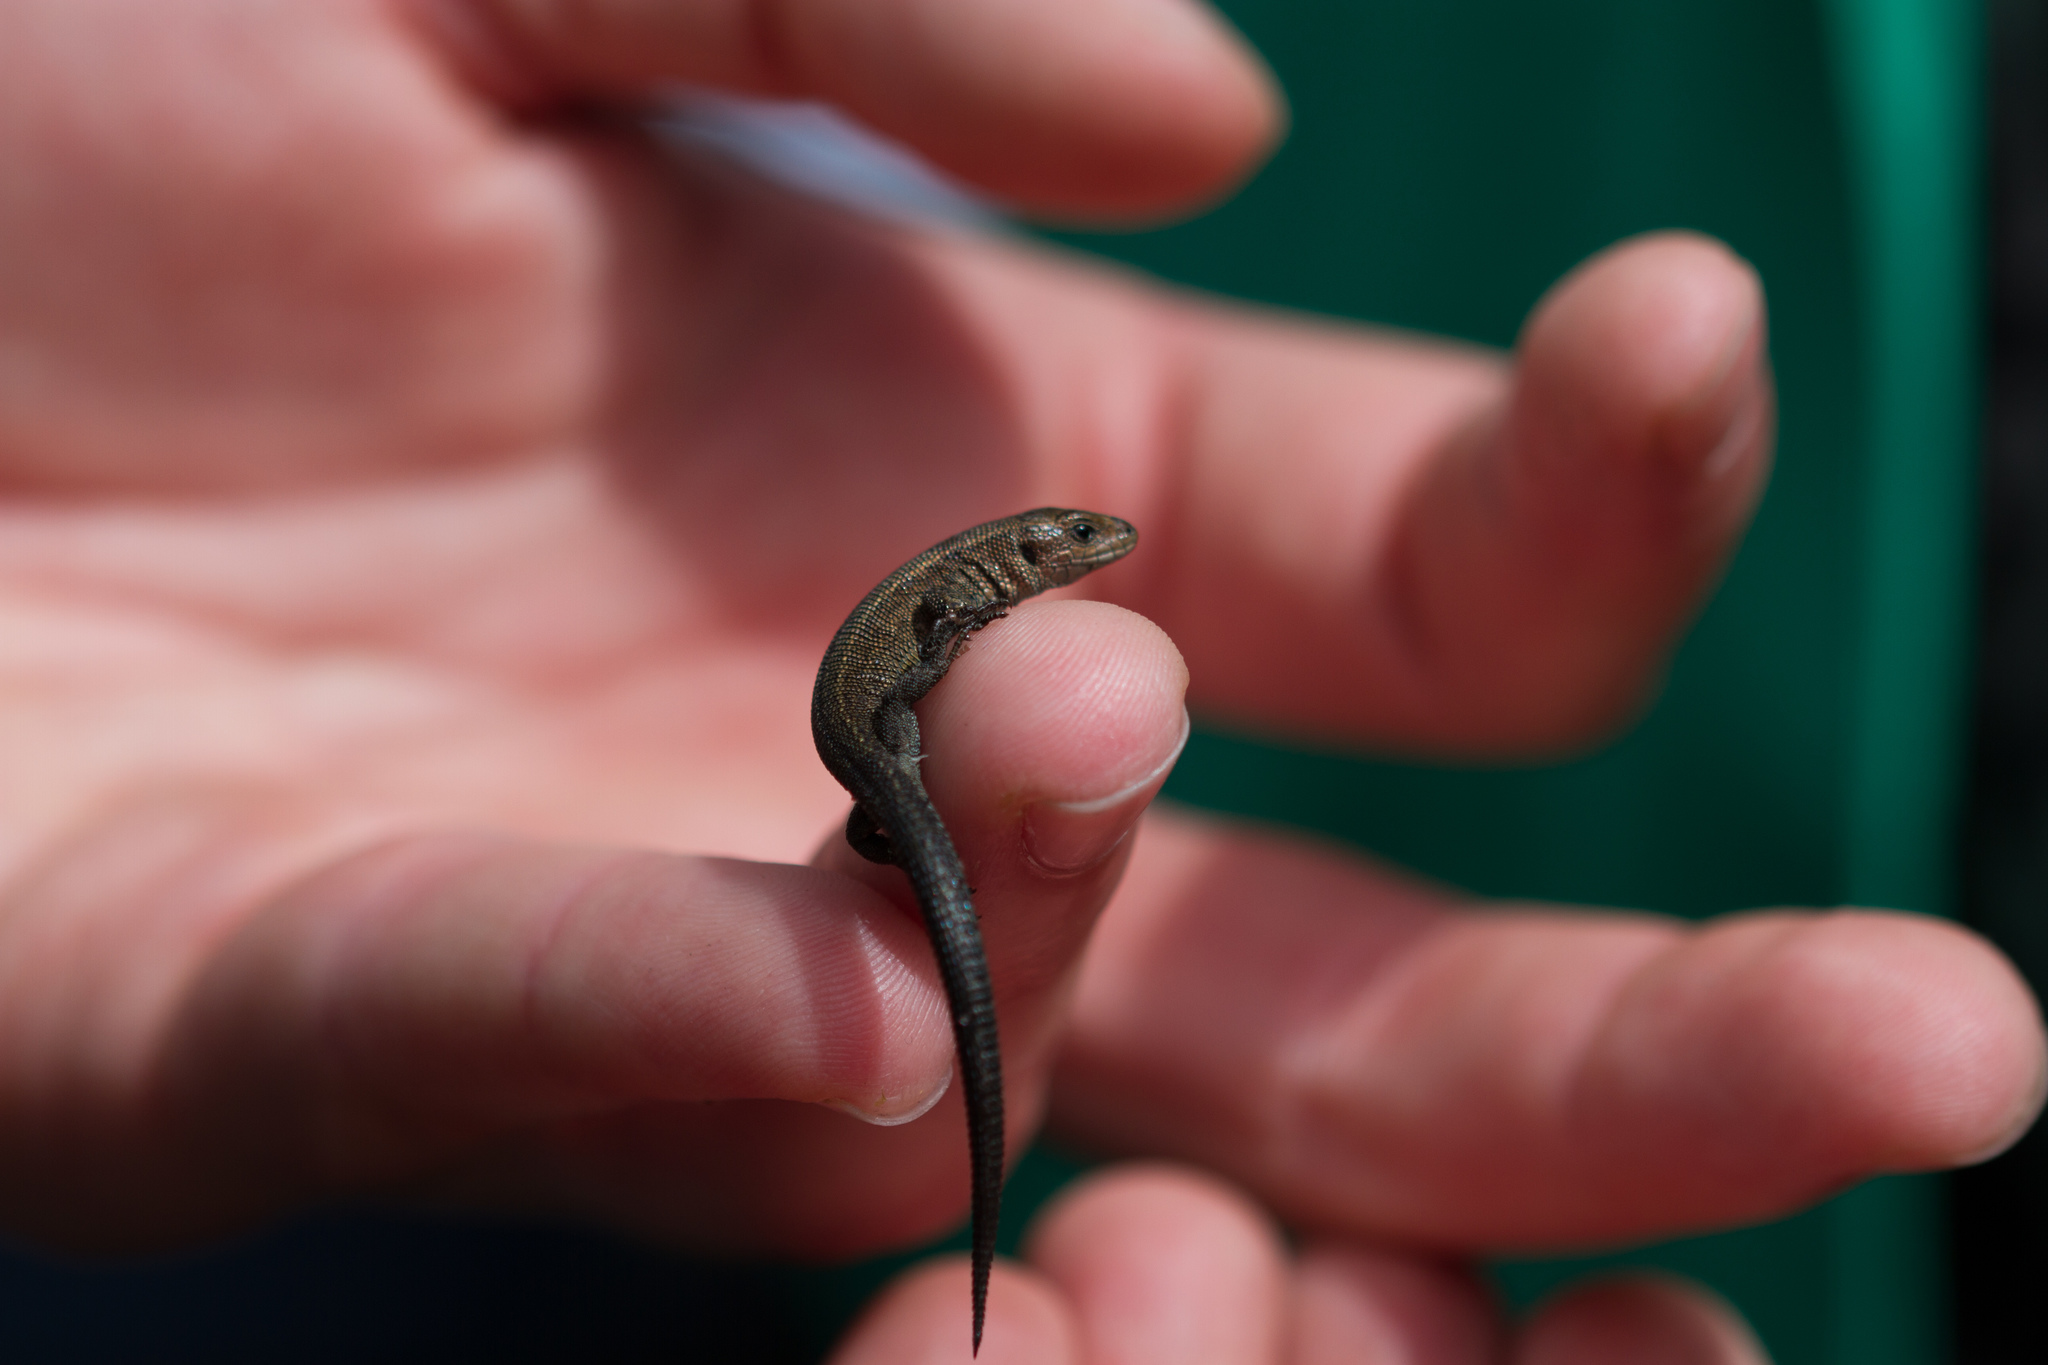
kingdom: Animalia
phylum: Chordata
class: Squamata
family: Lacertidae
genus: Zootoca
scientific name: Zootoca vivipara
